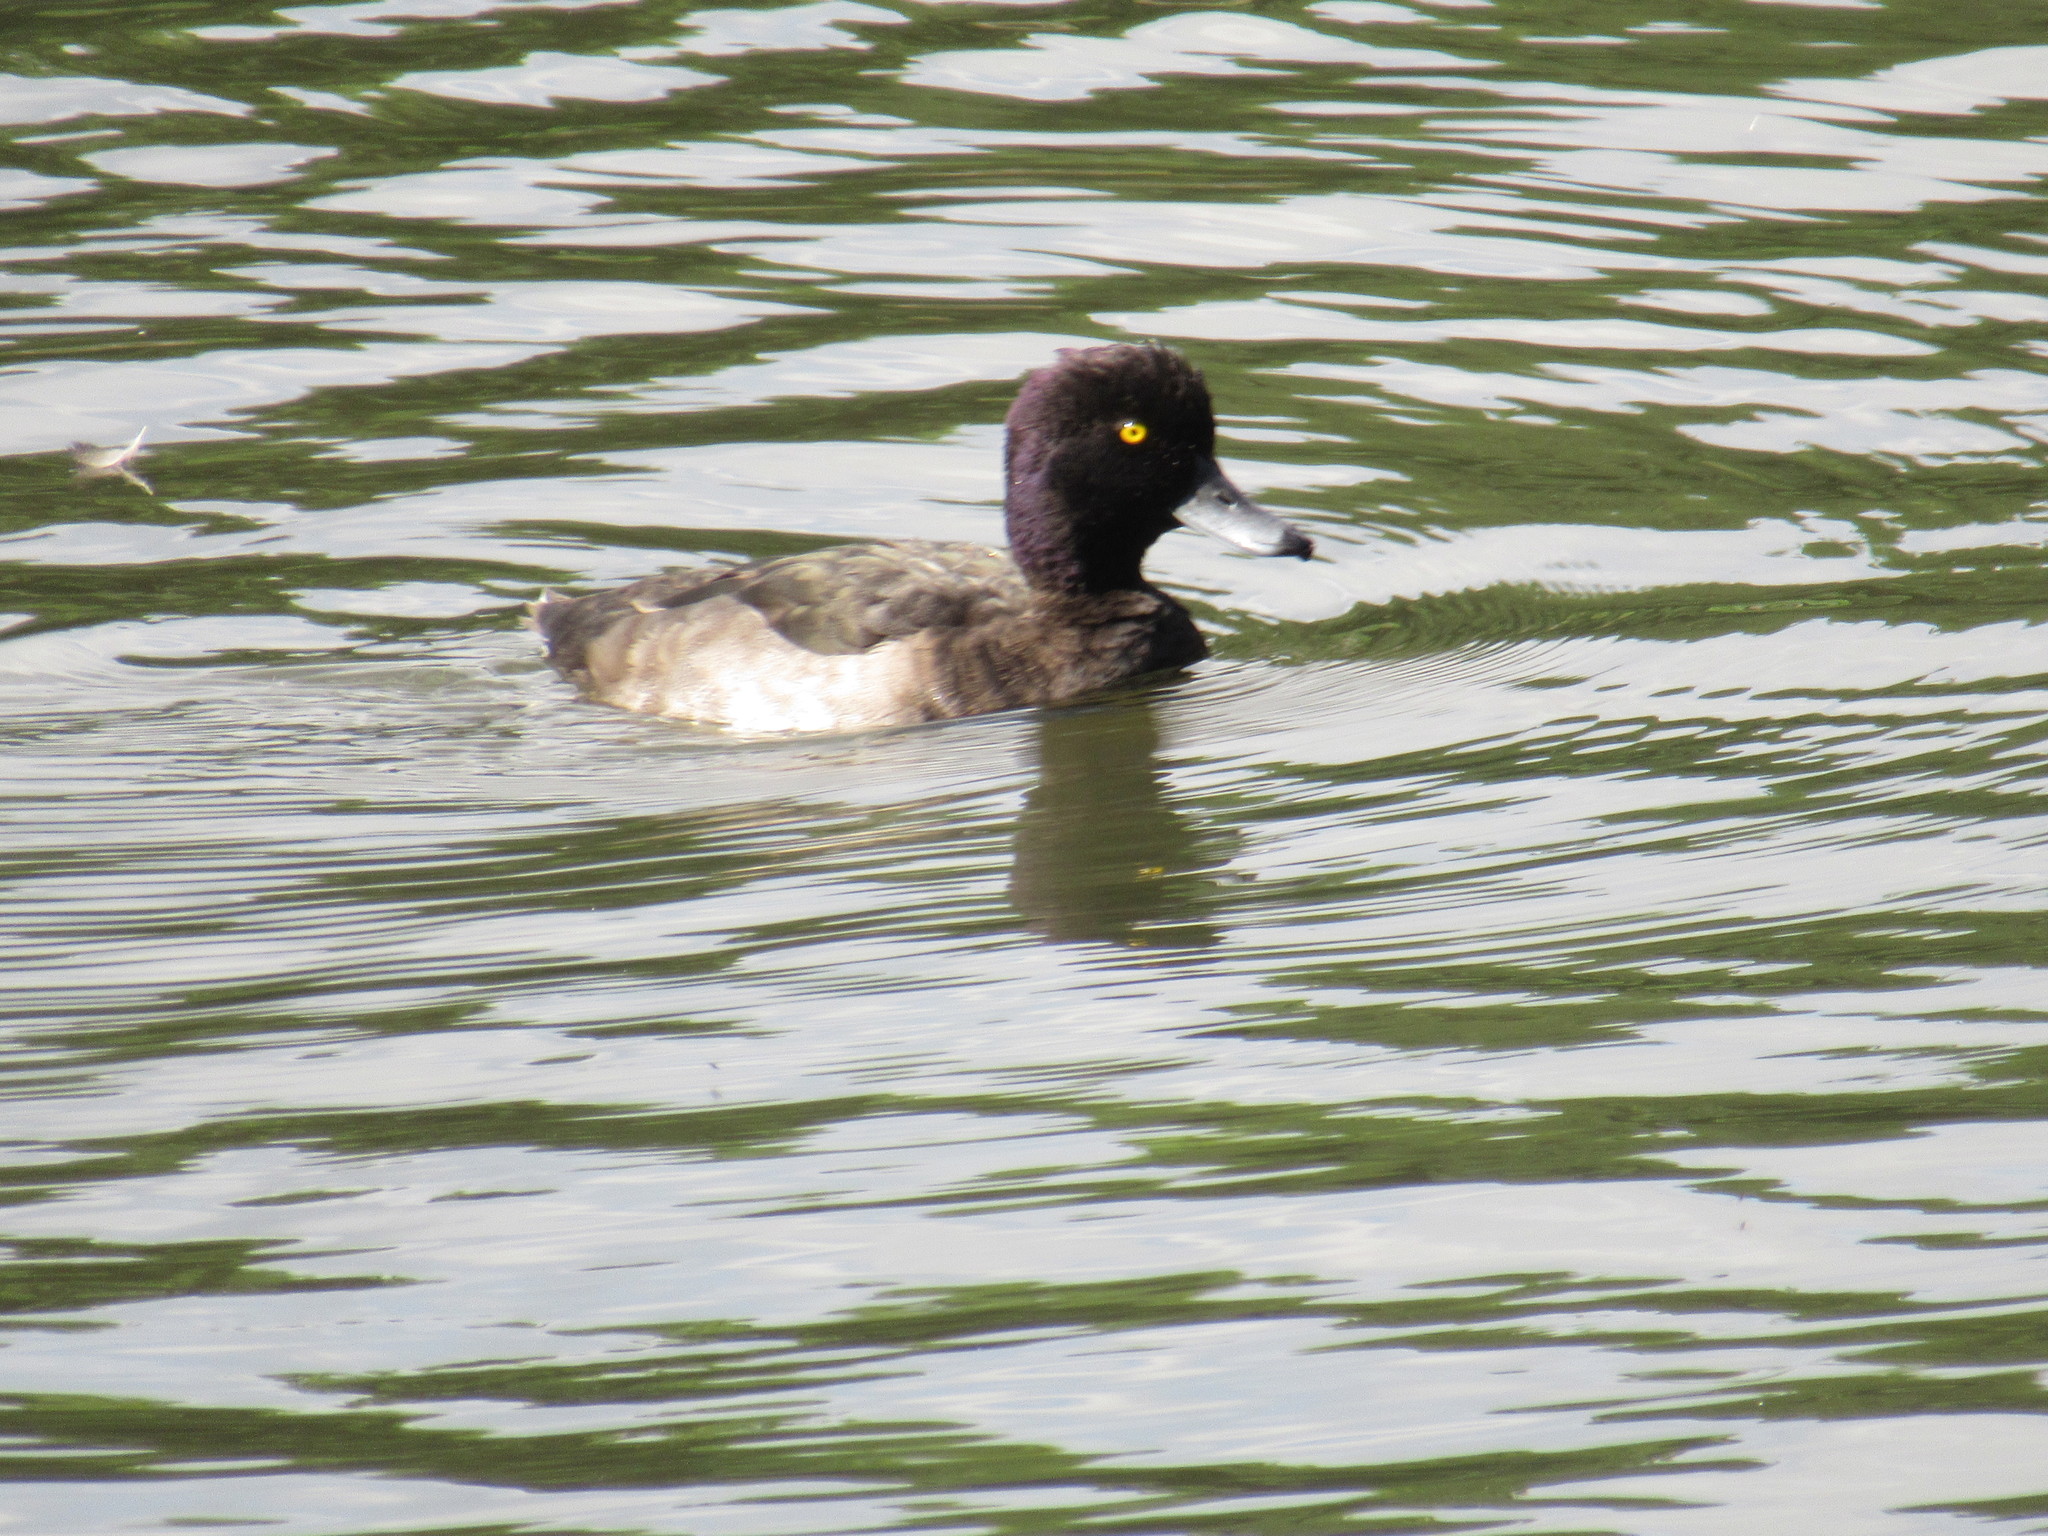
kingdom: Animalia
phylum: Chordata
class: Aves
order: Anseriformes
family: Anatidae
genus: Aythya
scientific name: Aythya fuligula
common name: Tufted duck
